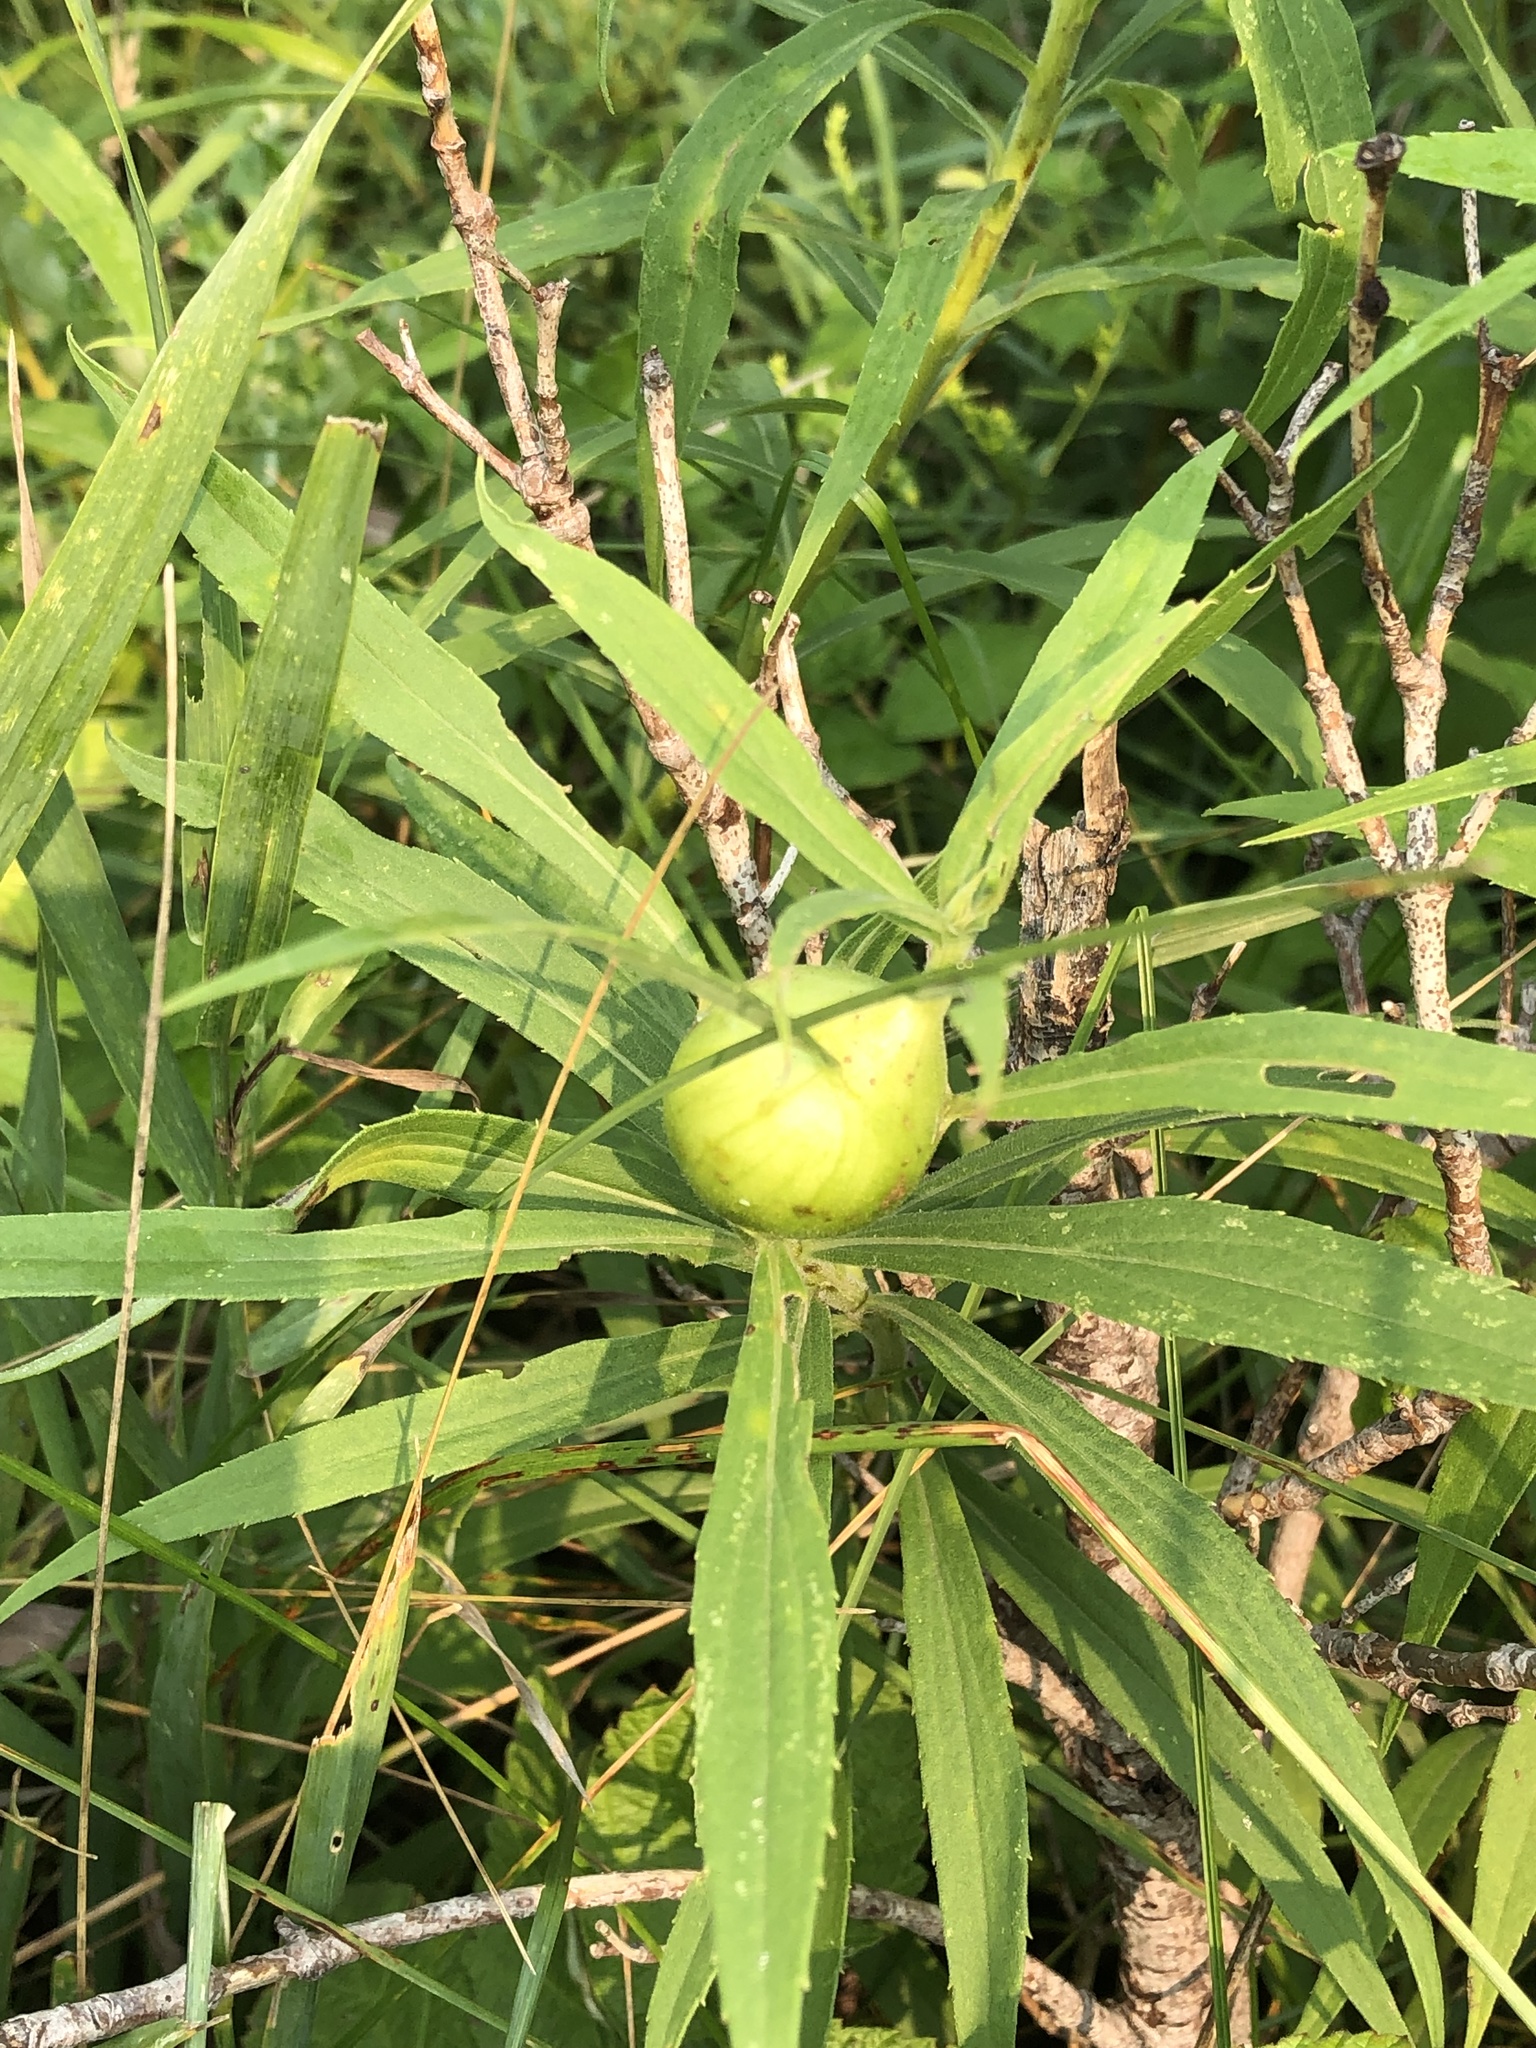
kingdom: Animalia
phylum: Arthropoda
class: Insecta
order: Diptera
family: Tephritidae
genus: Eurosta
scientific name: Eurosta solidaginis
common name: Goldenrod gall fly
